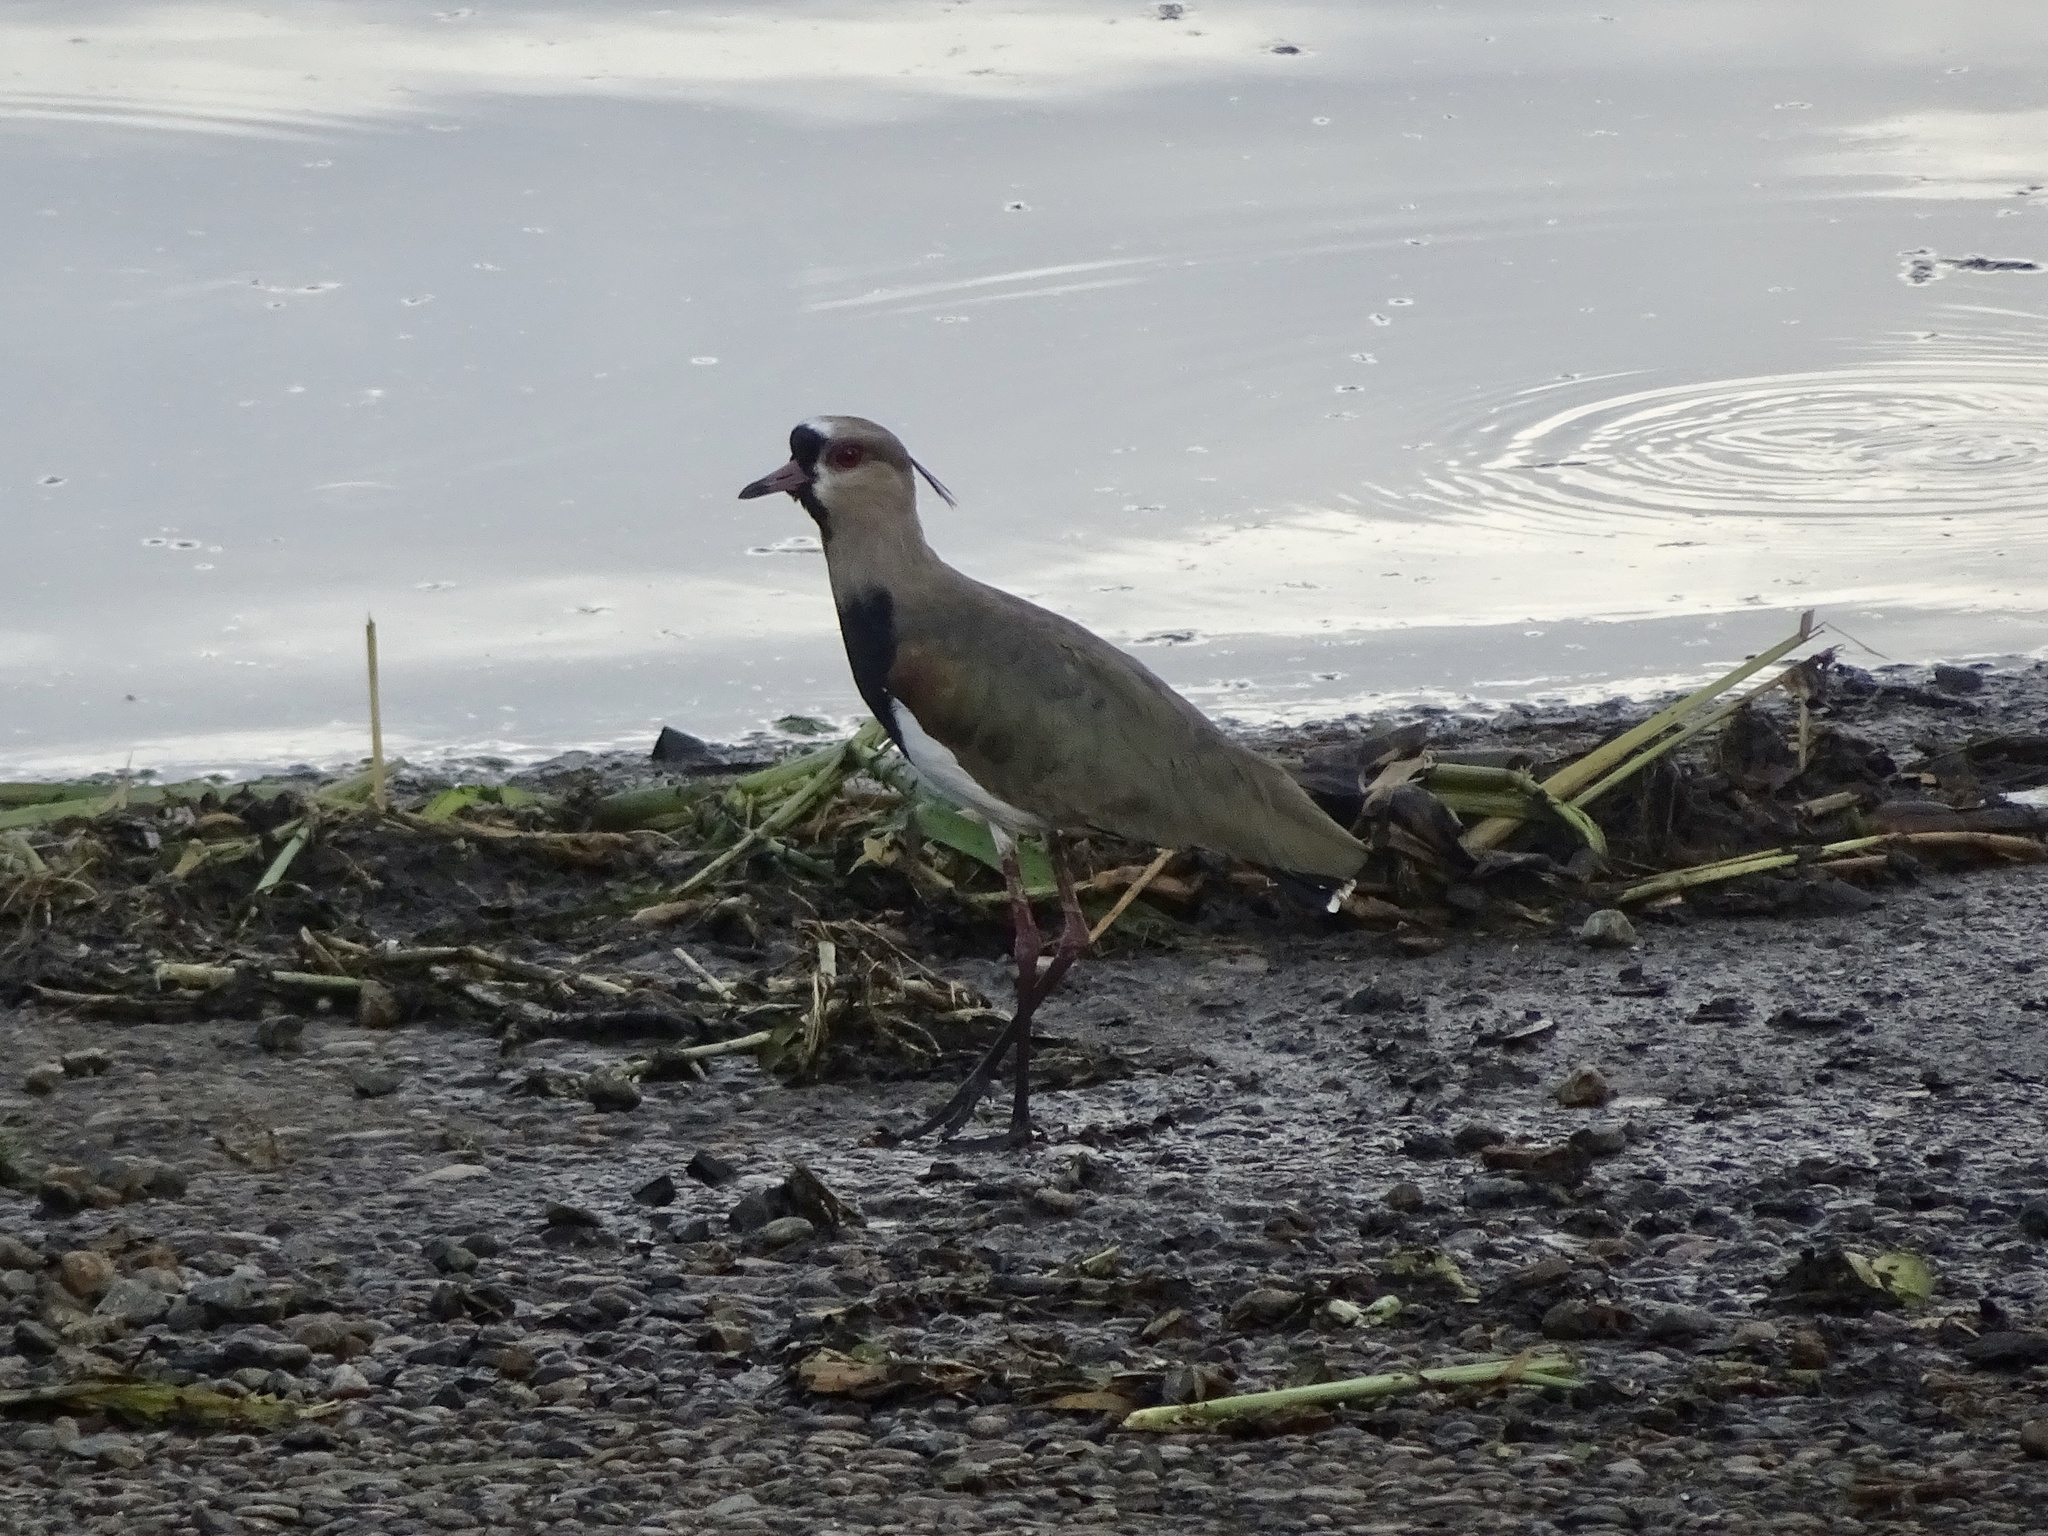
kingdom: Animalia
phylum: Chordata
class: Aves
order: Charadriiformes
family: Charadriidae
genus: Vanellus
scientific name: Vanellus chilensis
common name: Southern lapwing
